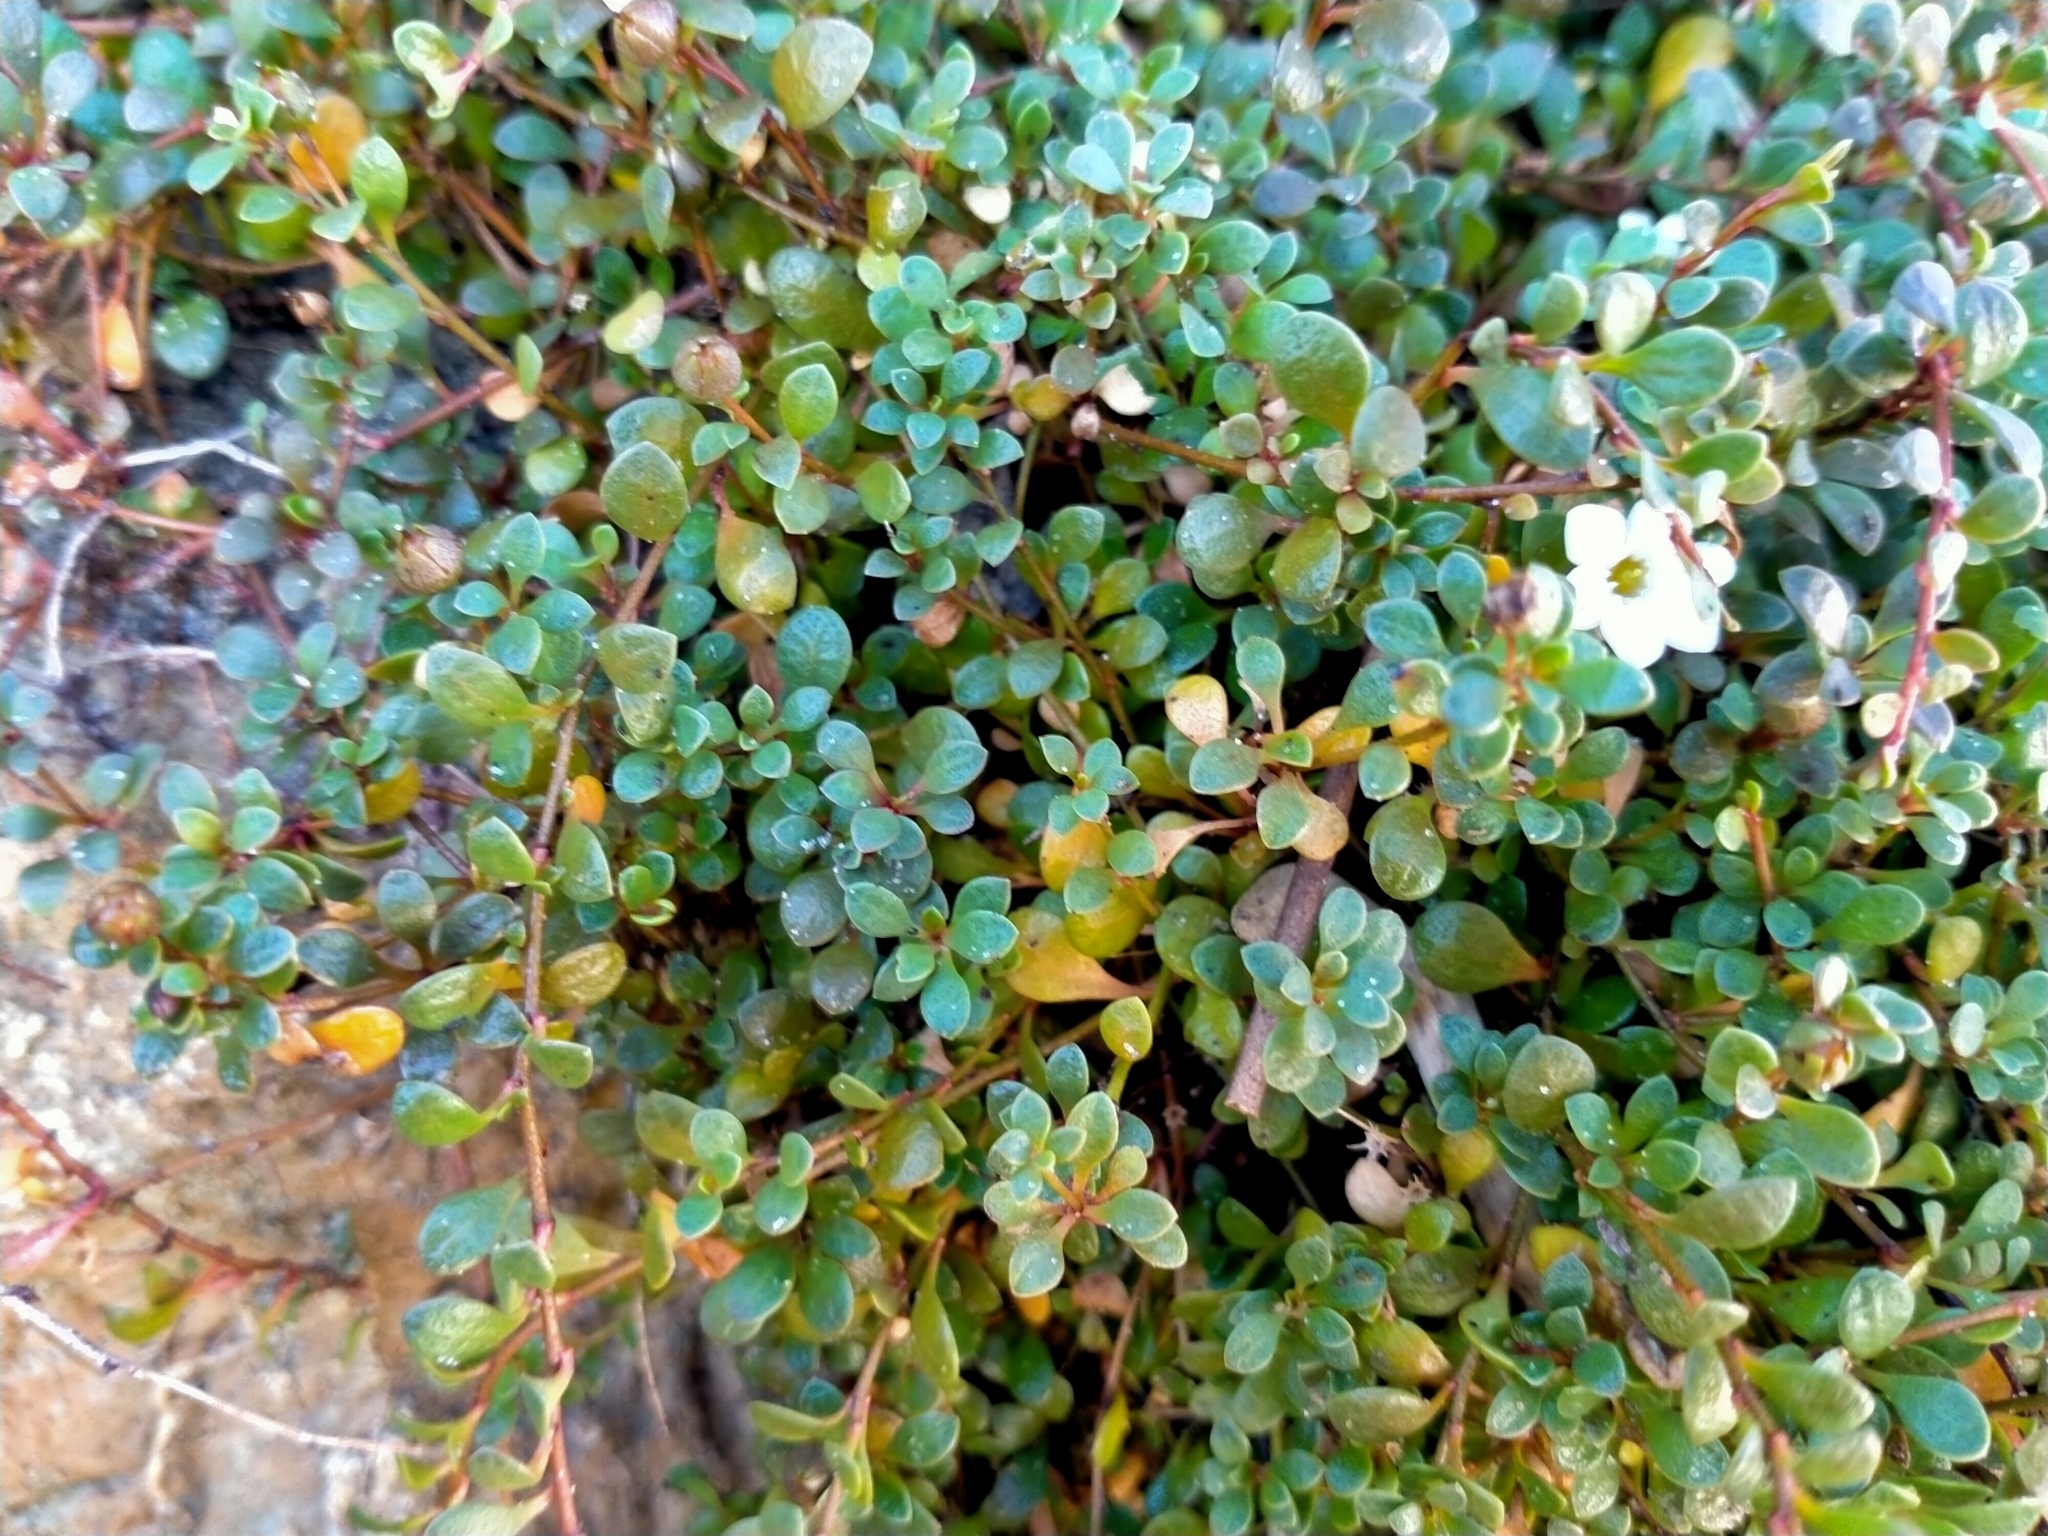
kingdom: Plantae
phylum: Tracheophyta
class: Magnoliopsida
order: Ericales
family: Primulaceae
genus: Samolus
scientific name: Samolus repens
